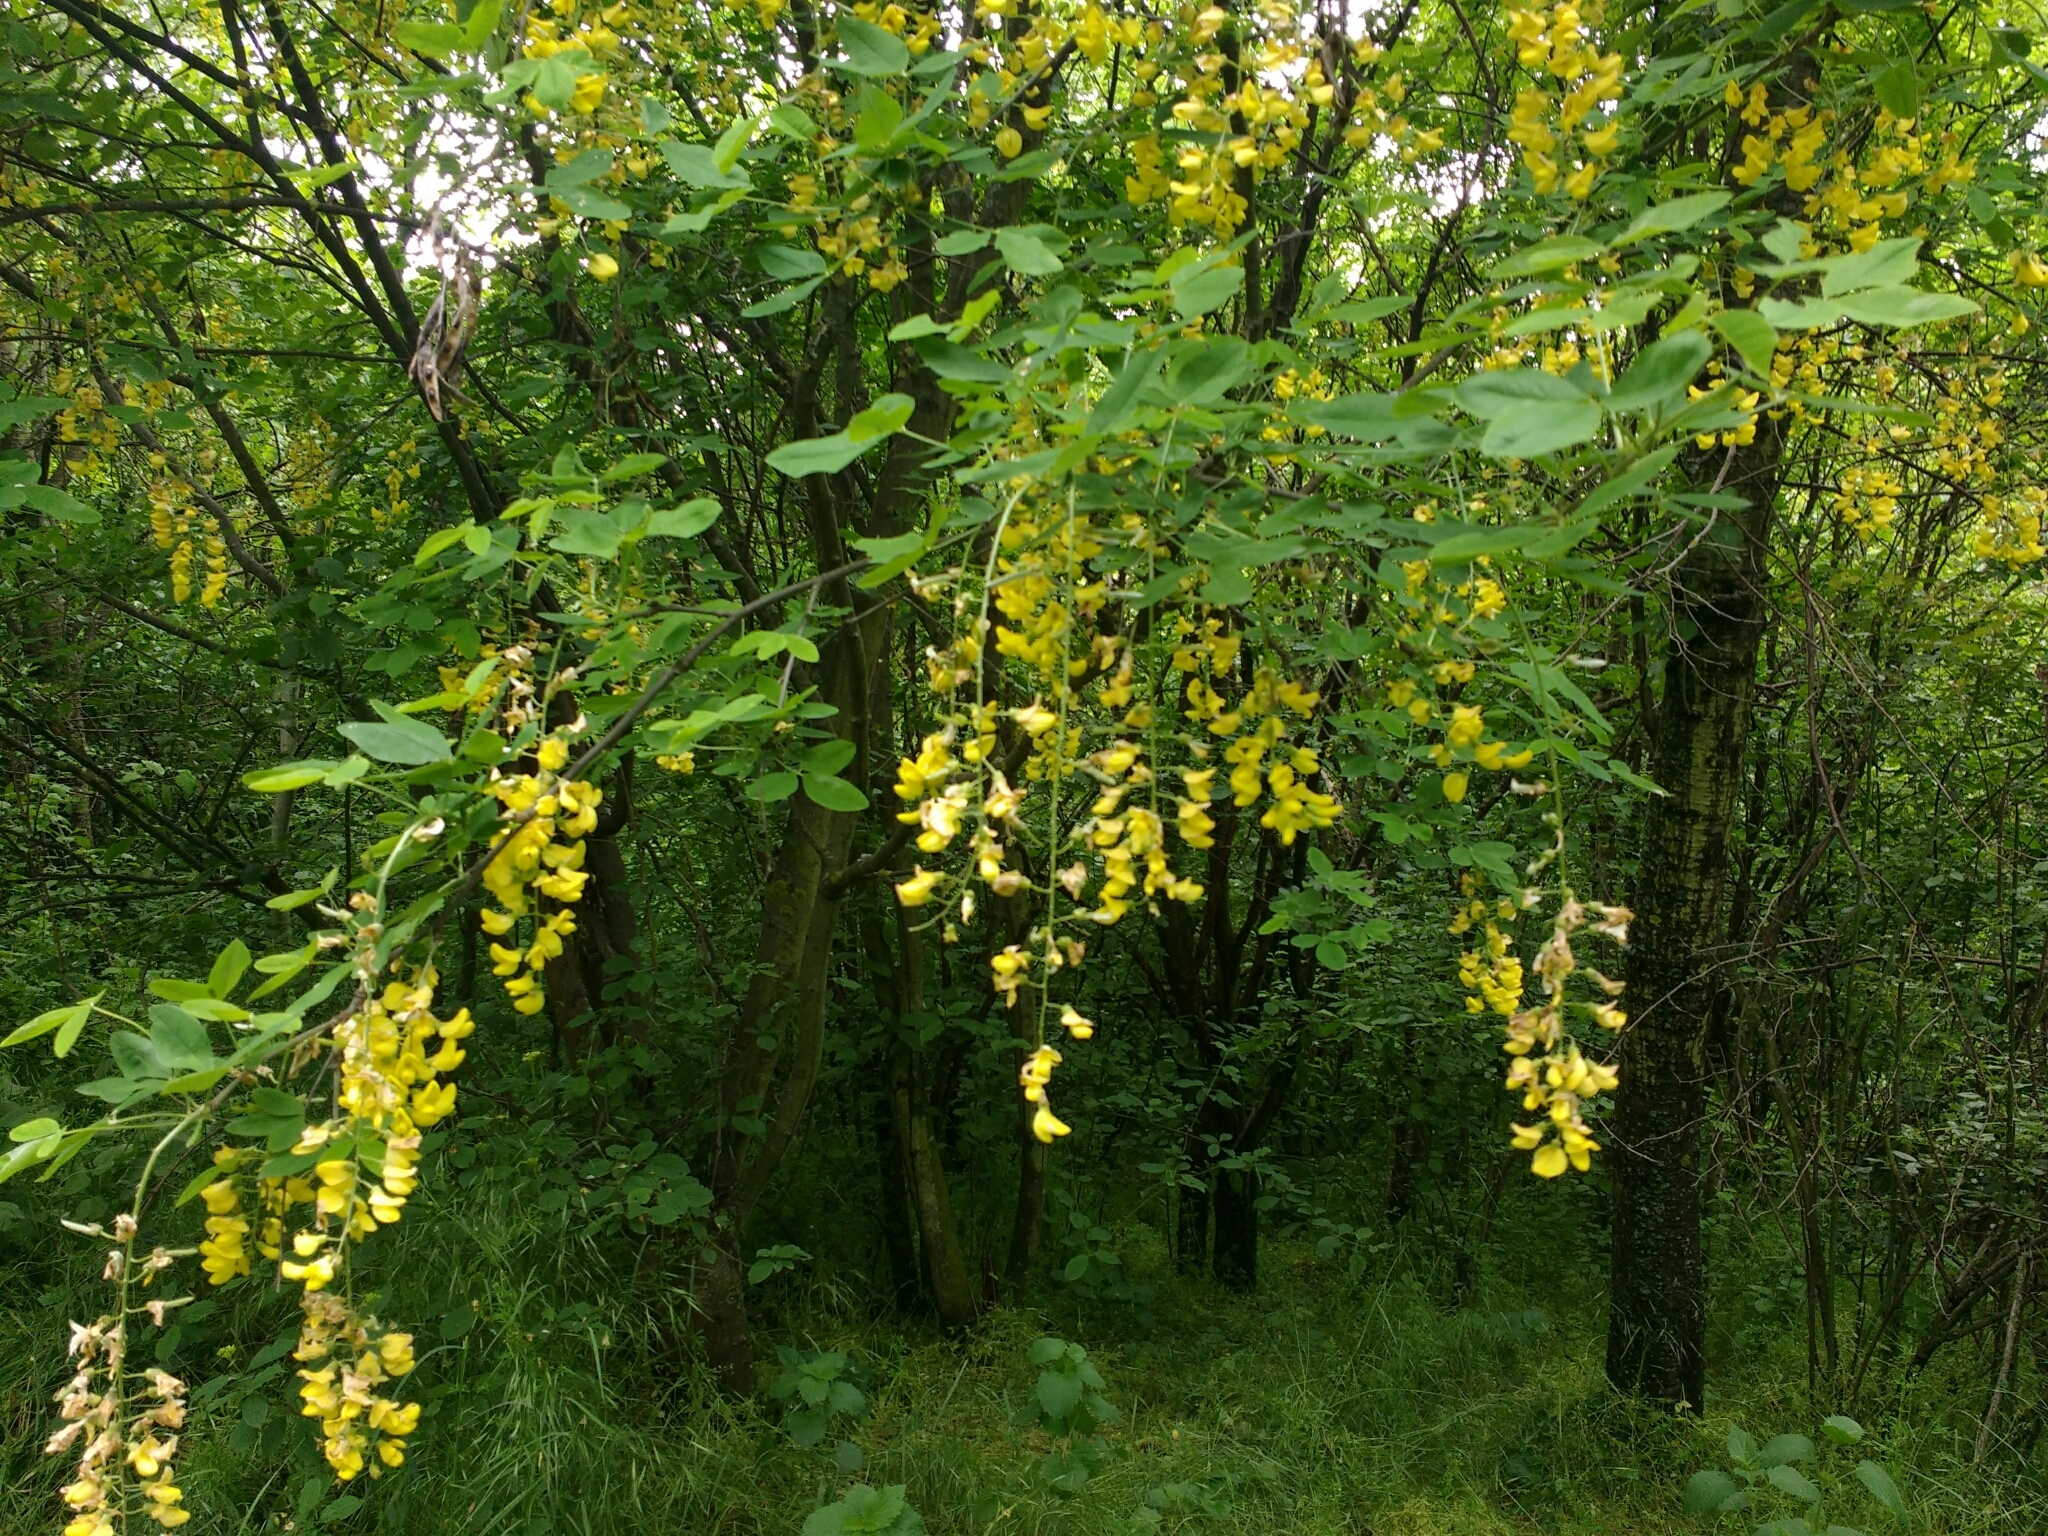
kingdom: Plantae
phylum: Tracheophyta
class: Magnoliopsida
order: Fabales
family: Fabaceae
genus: Laburnum
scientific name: Laburnum anagyroides
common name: Laburnum
